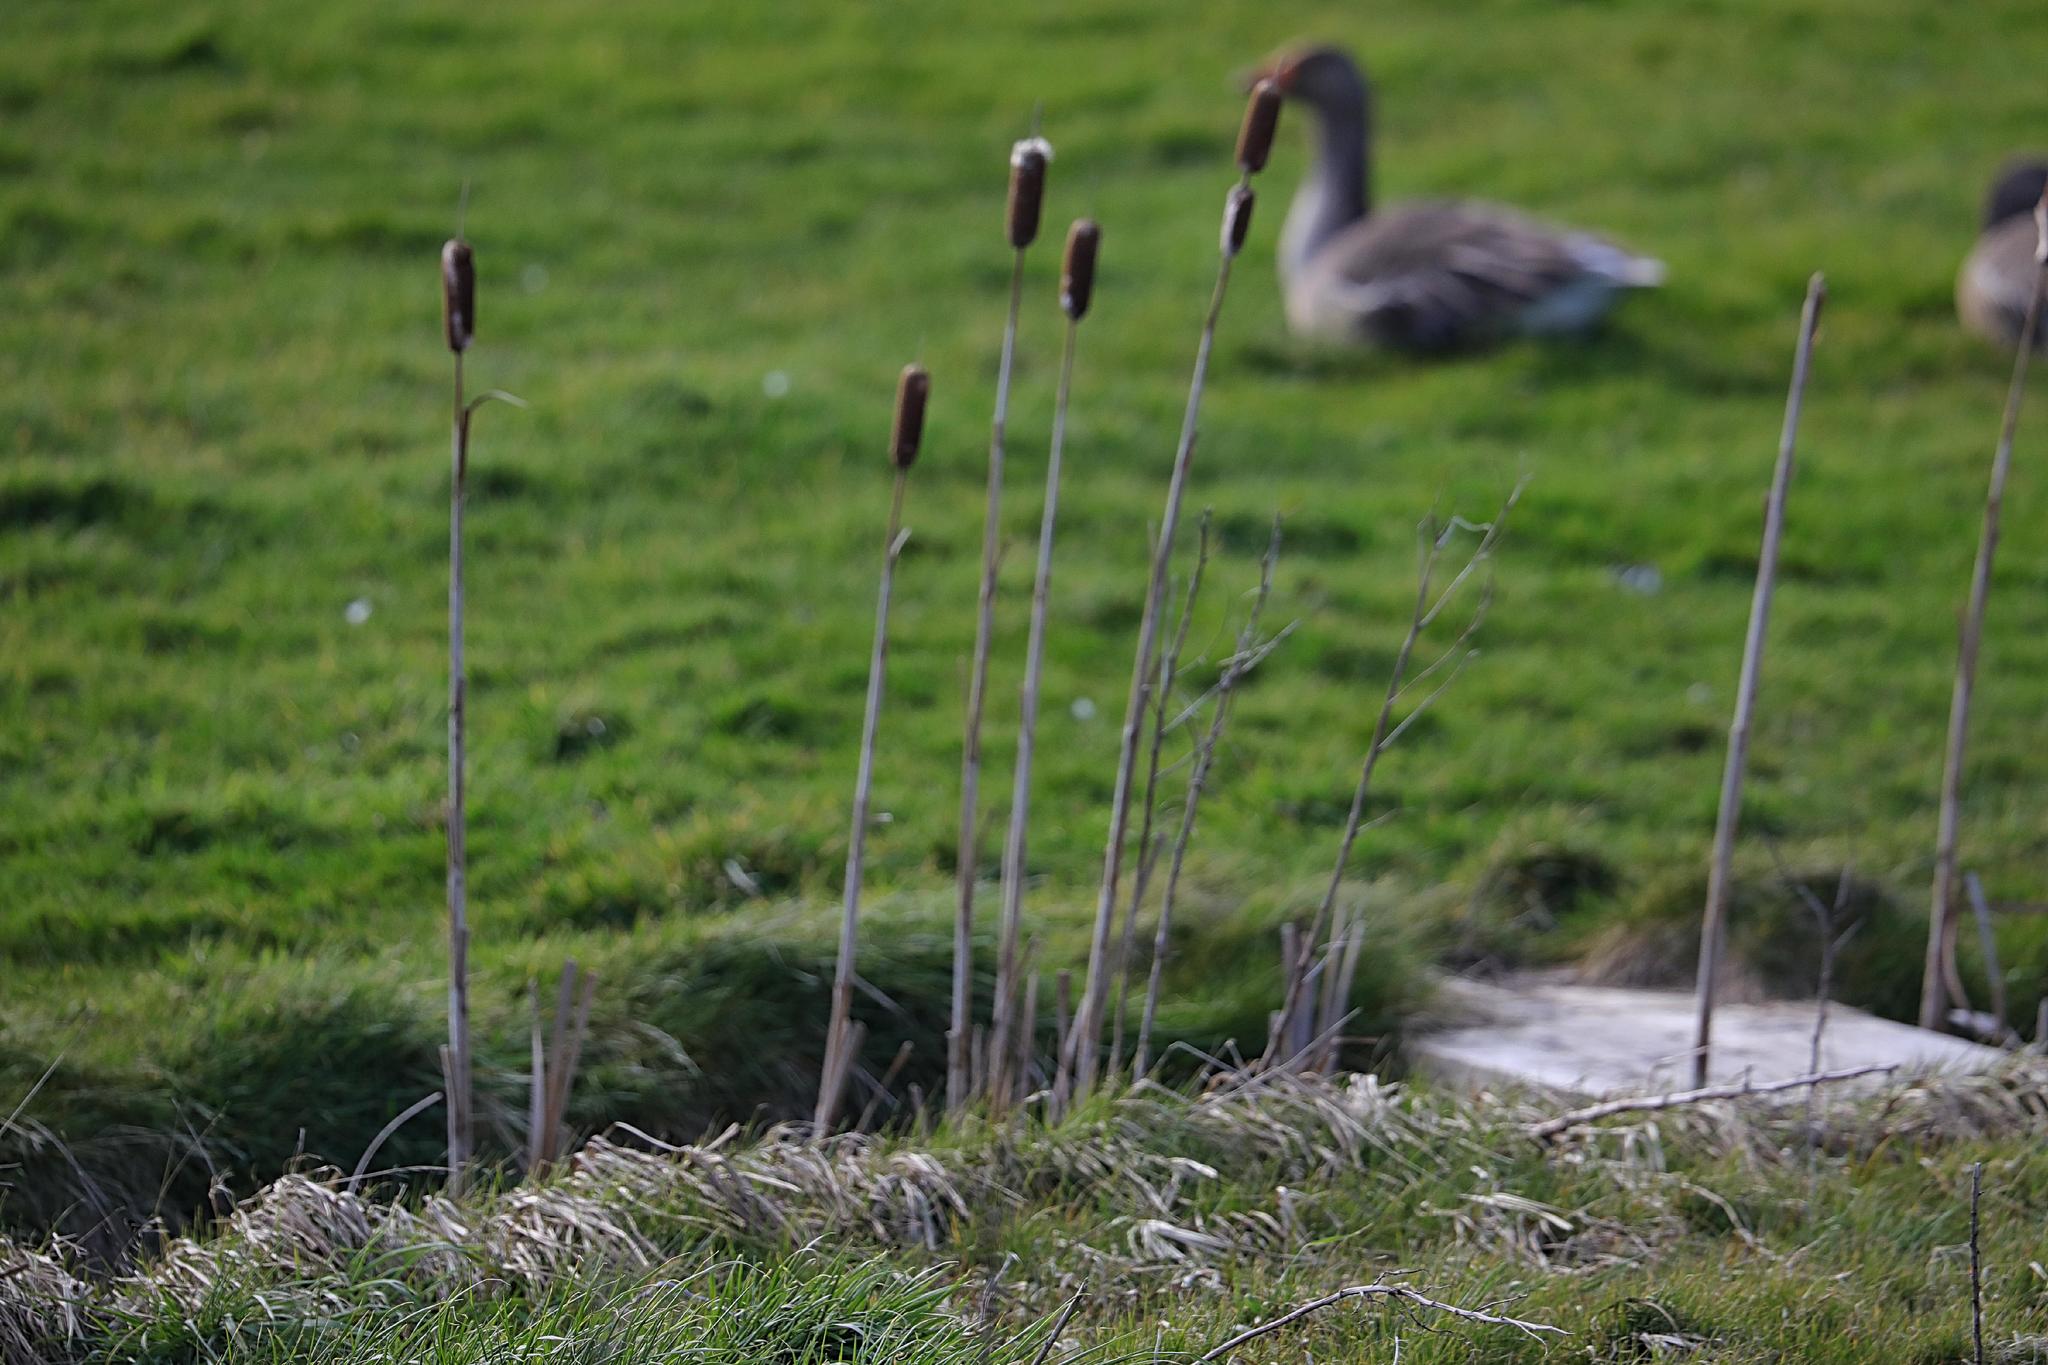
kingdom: Plantae
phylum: Tracheophyta
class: Liliopsida
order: Poales
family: Typhaceae
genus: Typha
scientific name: Typha latifolia
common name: Broadleaf cattail
